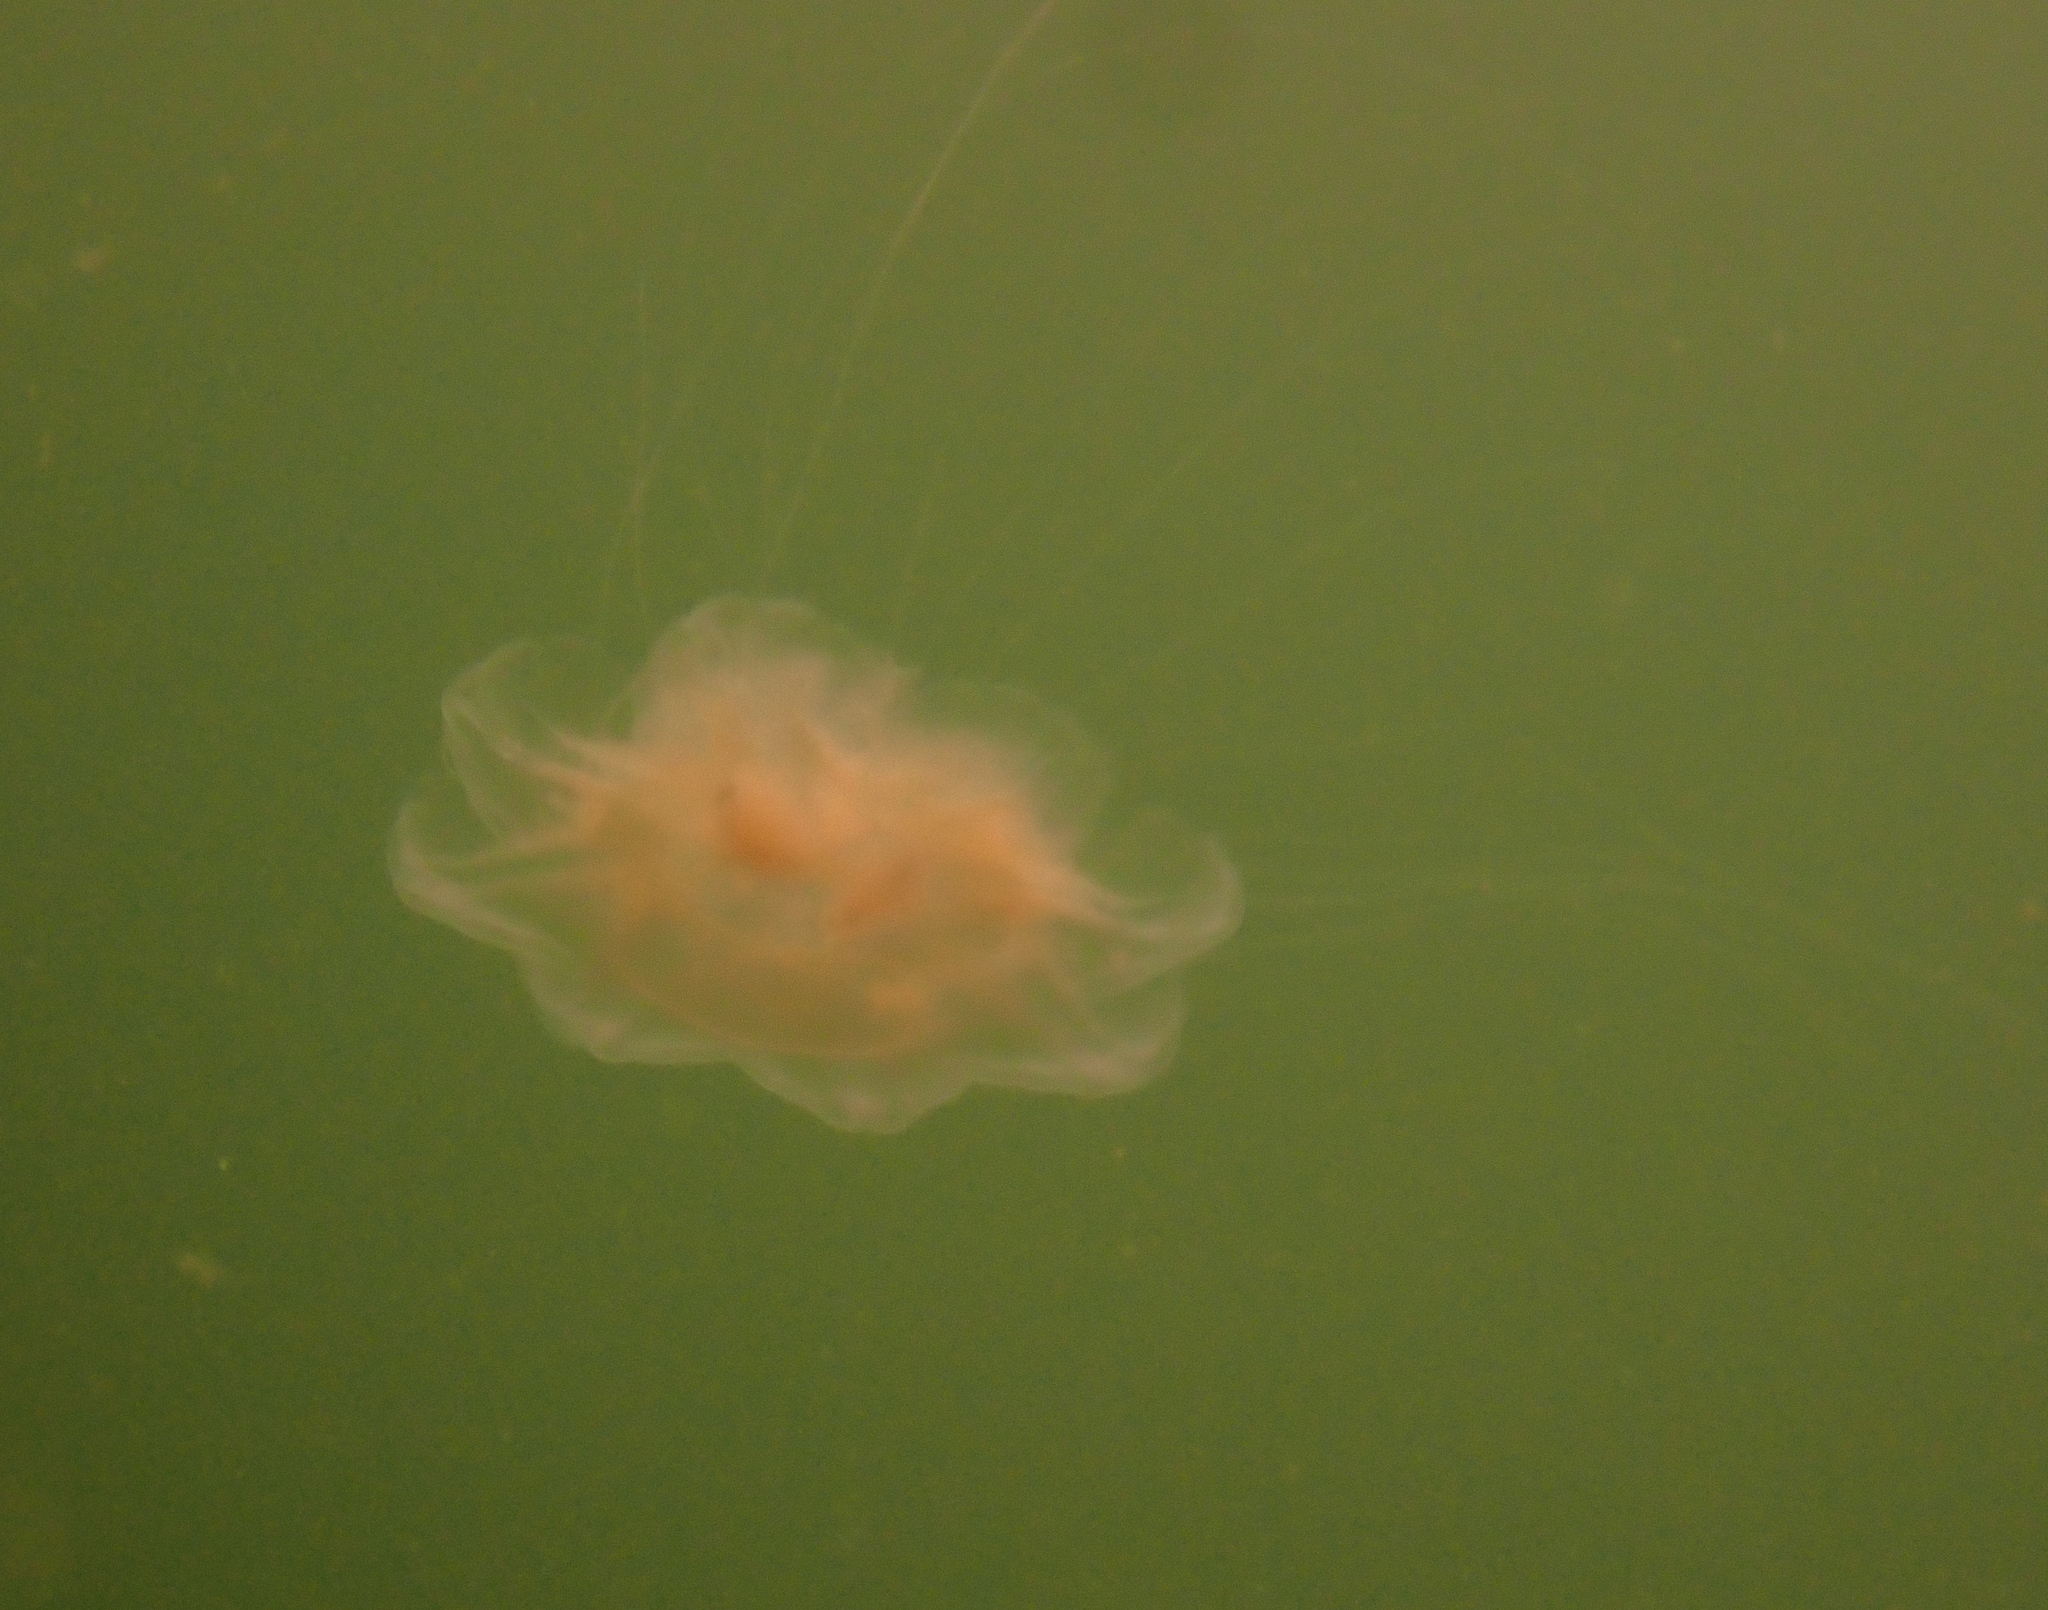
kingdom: Animalia
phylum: Cnidaria
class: Scyphozoa
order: Semaeostomeae
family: Cyaneidae
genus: Cyanea
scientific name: Cyanea capillata
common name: Lion's mane jellyfish
